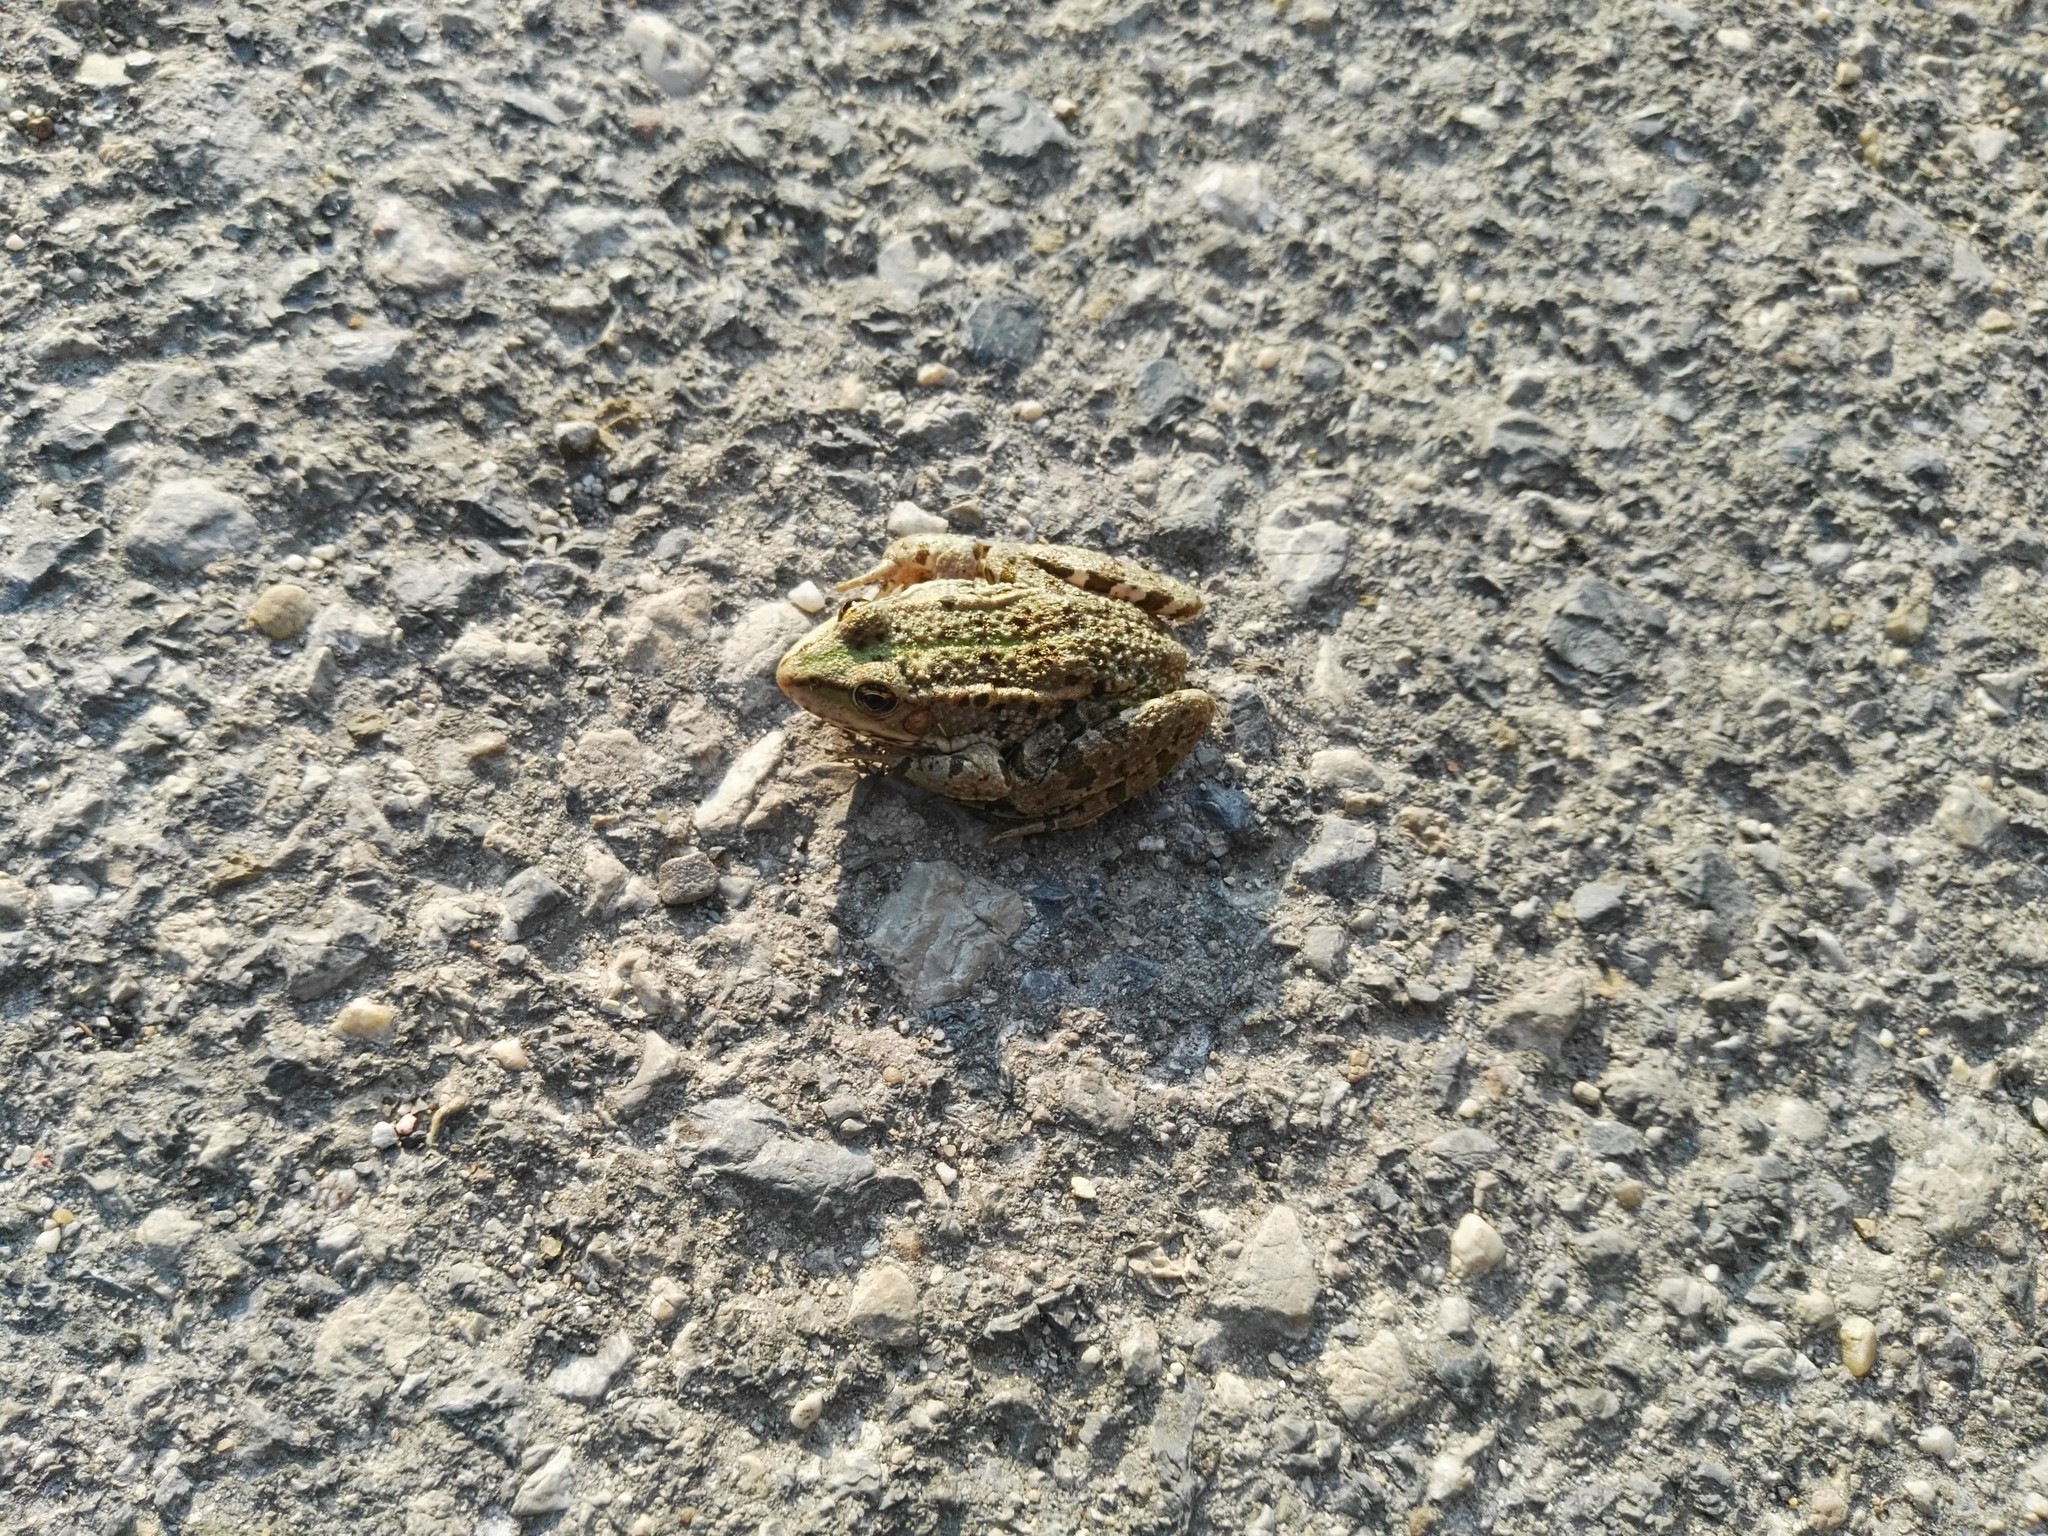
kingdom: Animalia
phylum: Chordata
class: Amphibia
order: Anura
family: Ranidae
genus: Pelophylax
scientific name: Pelophylax
